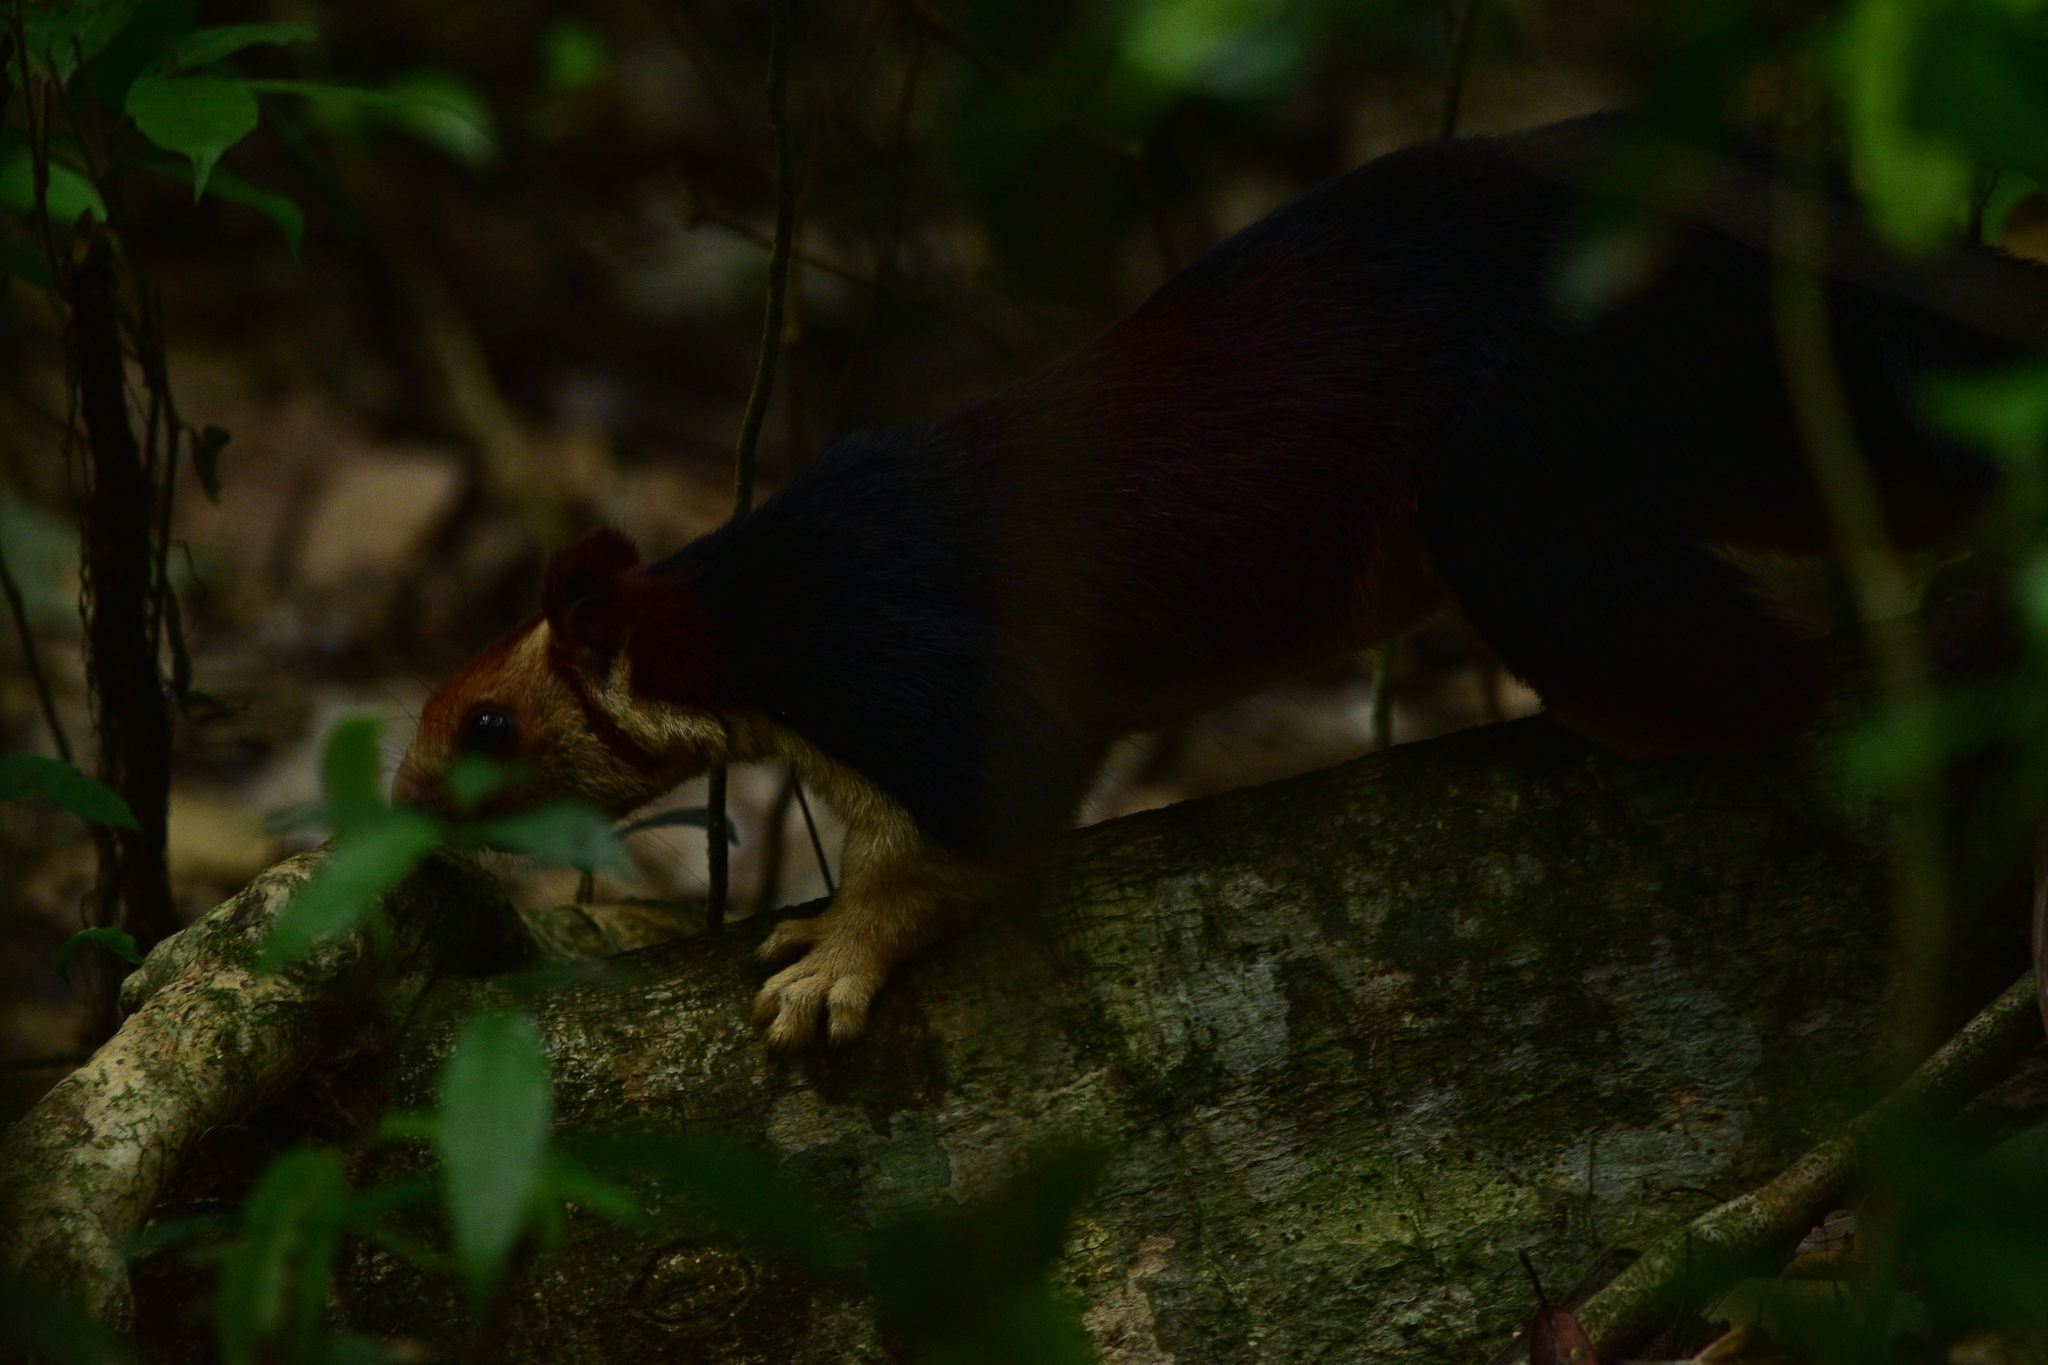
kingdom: Animalia
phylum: Chordata
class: Mammalia
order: Rodentia
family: Sciuridae
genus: Ratufa
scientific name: Ratufa indica
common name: Indian giant squirrel
